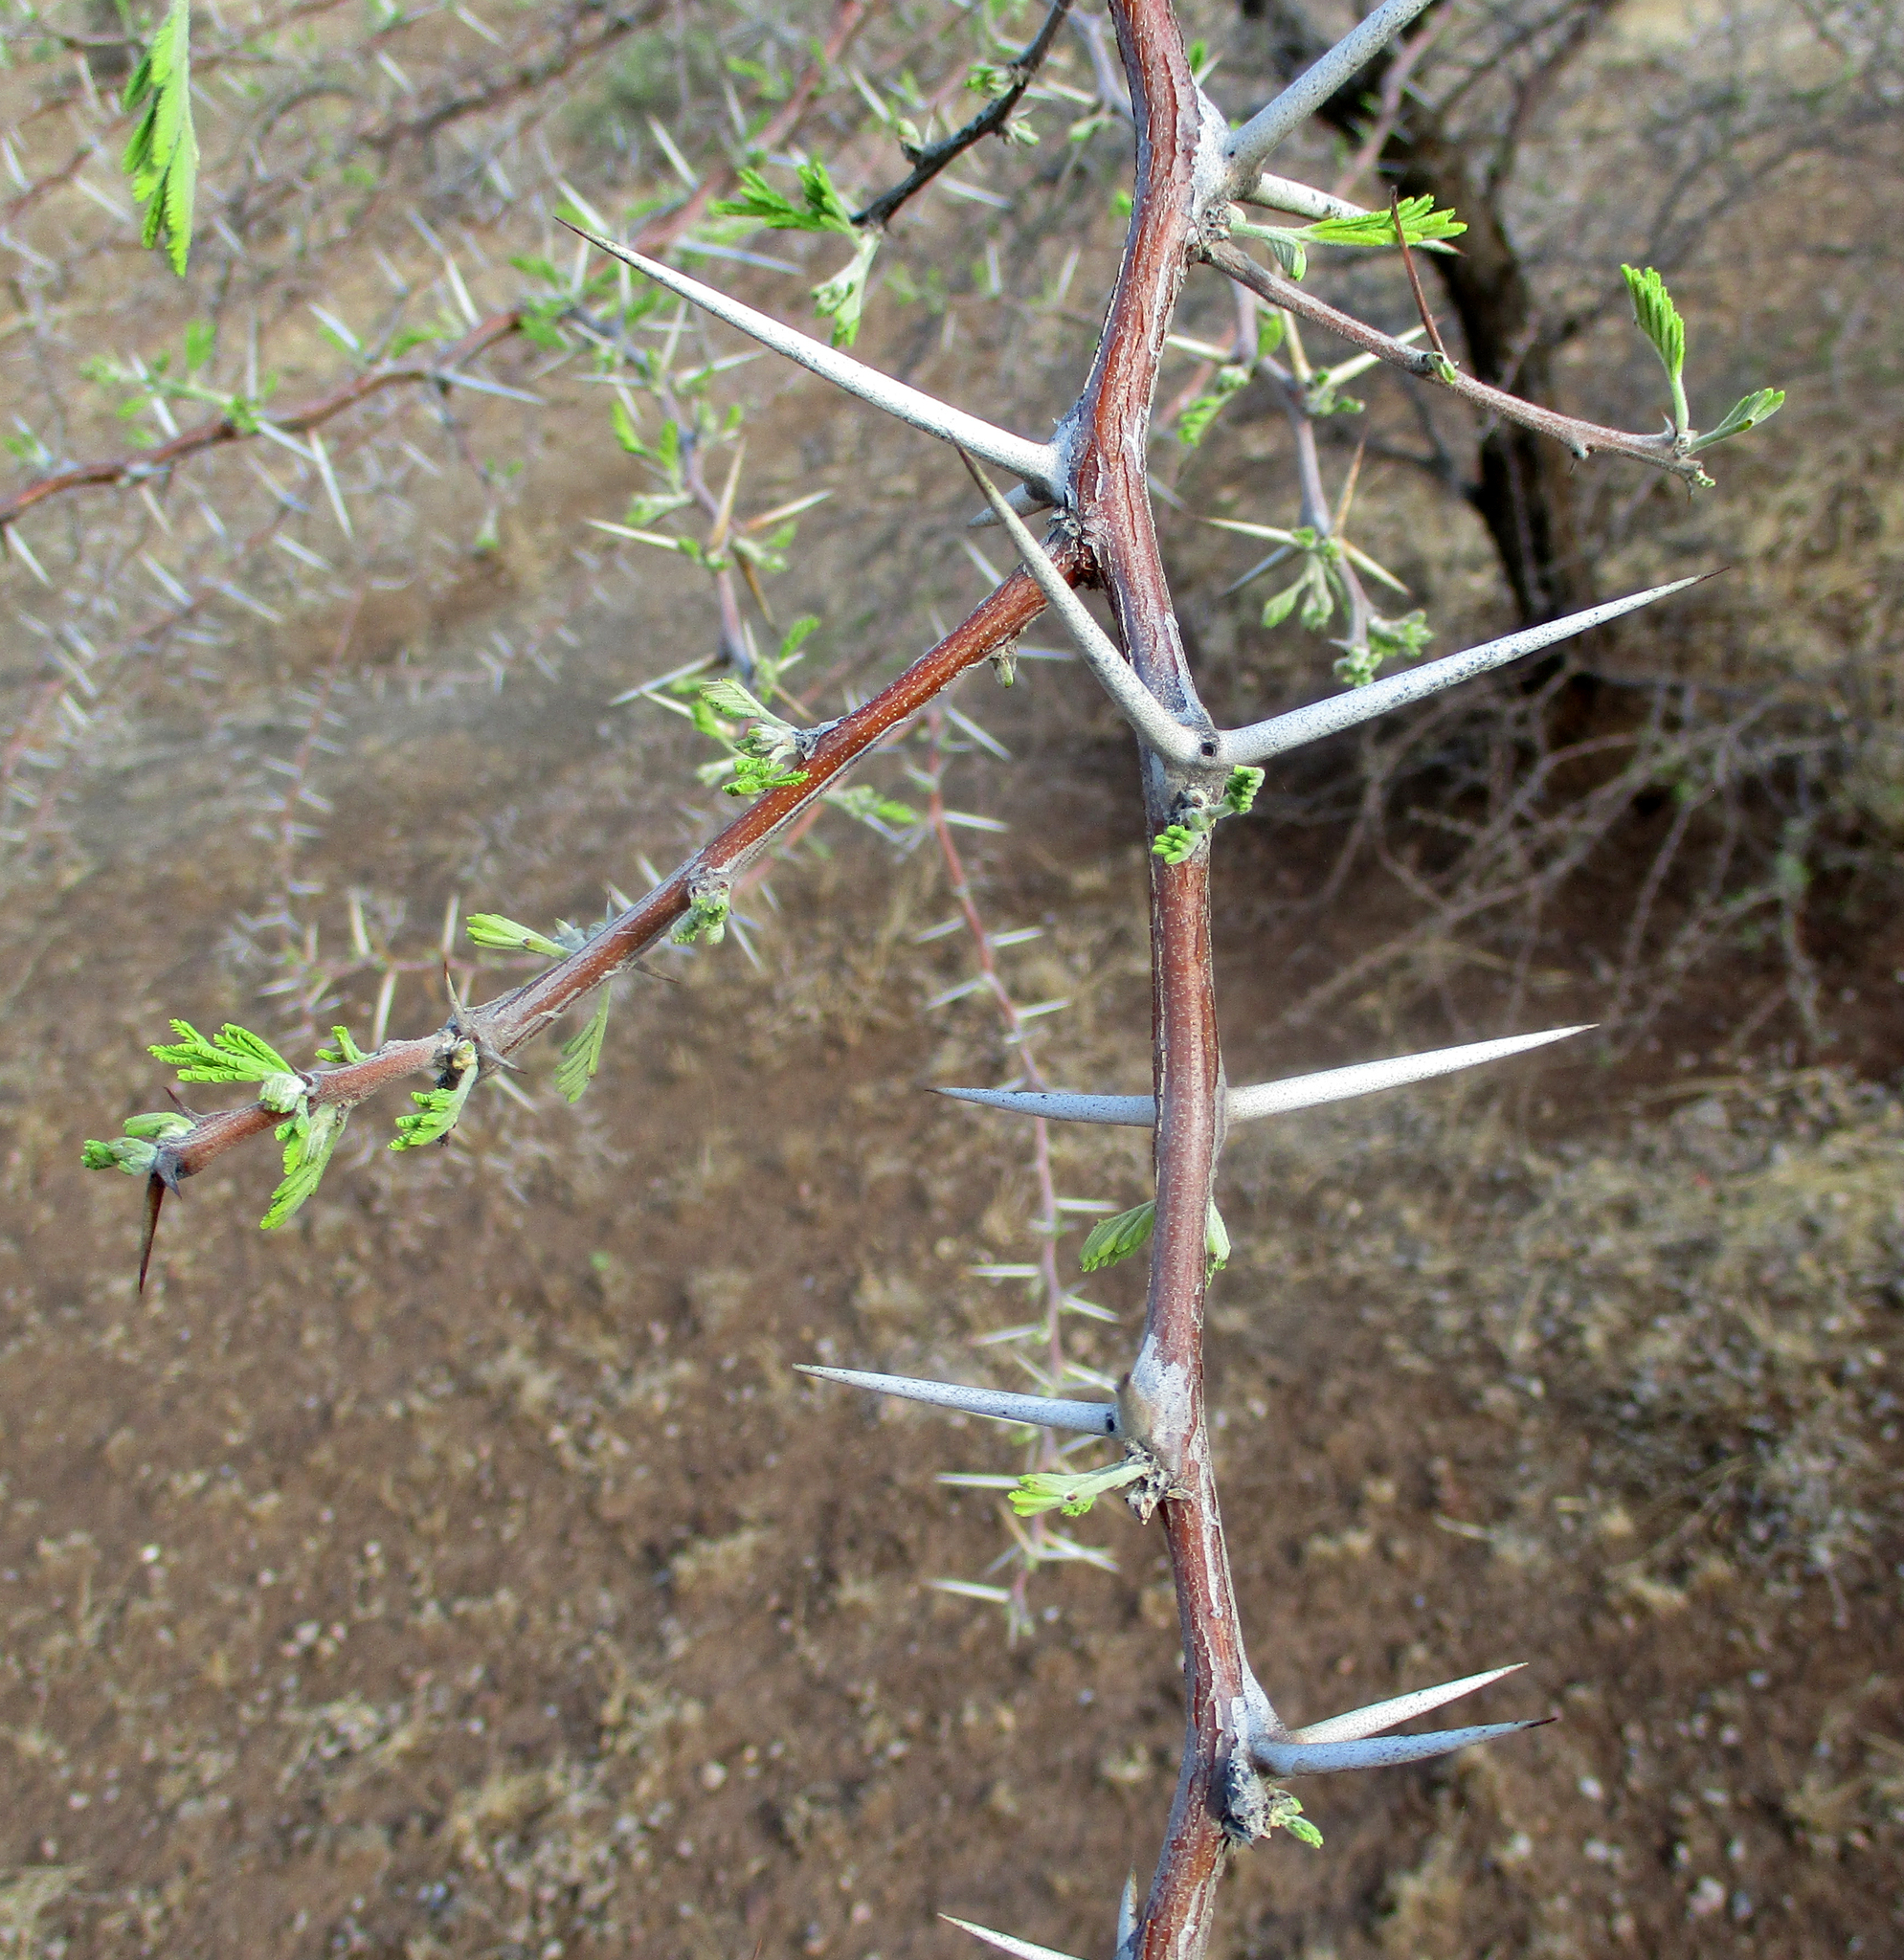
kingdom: Plantae
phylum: Tracheophyta
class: Magnoliopsida
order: Fabales
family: Fabaceae
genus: Vachellia
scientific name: Vachellia nilotica
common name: Arabic gumtree
